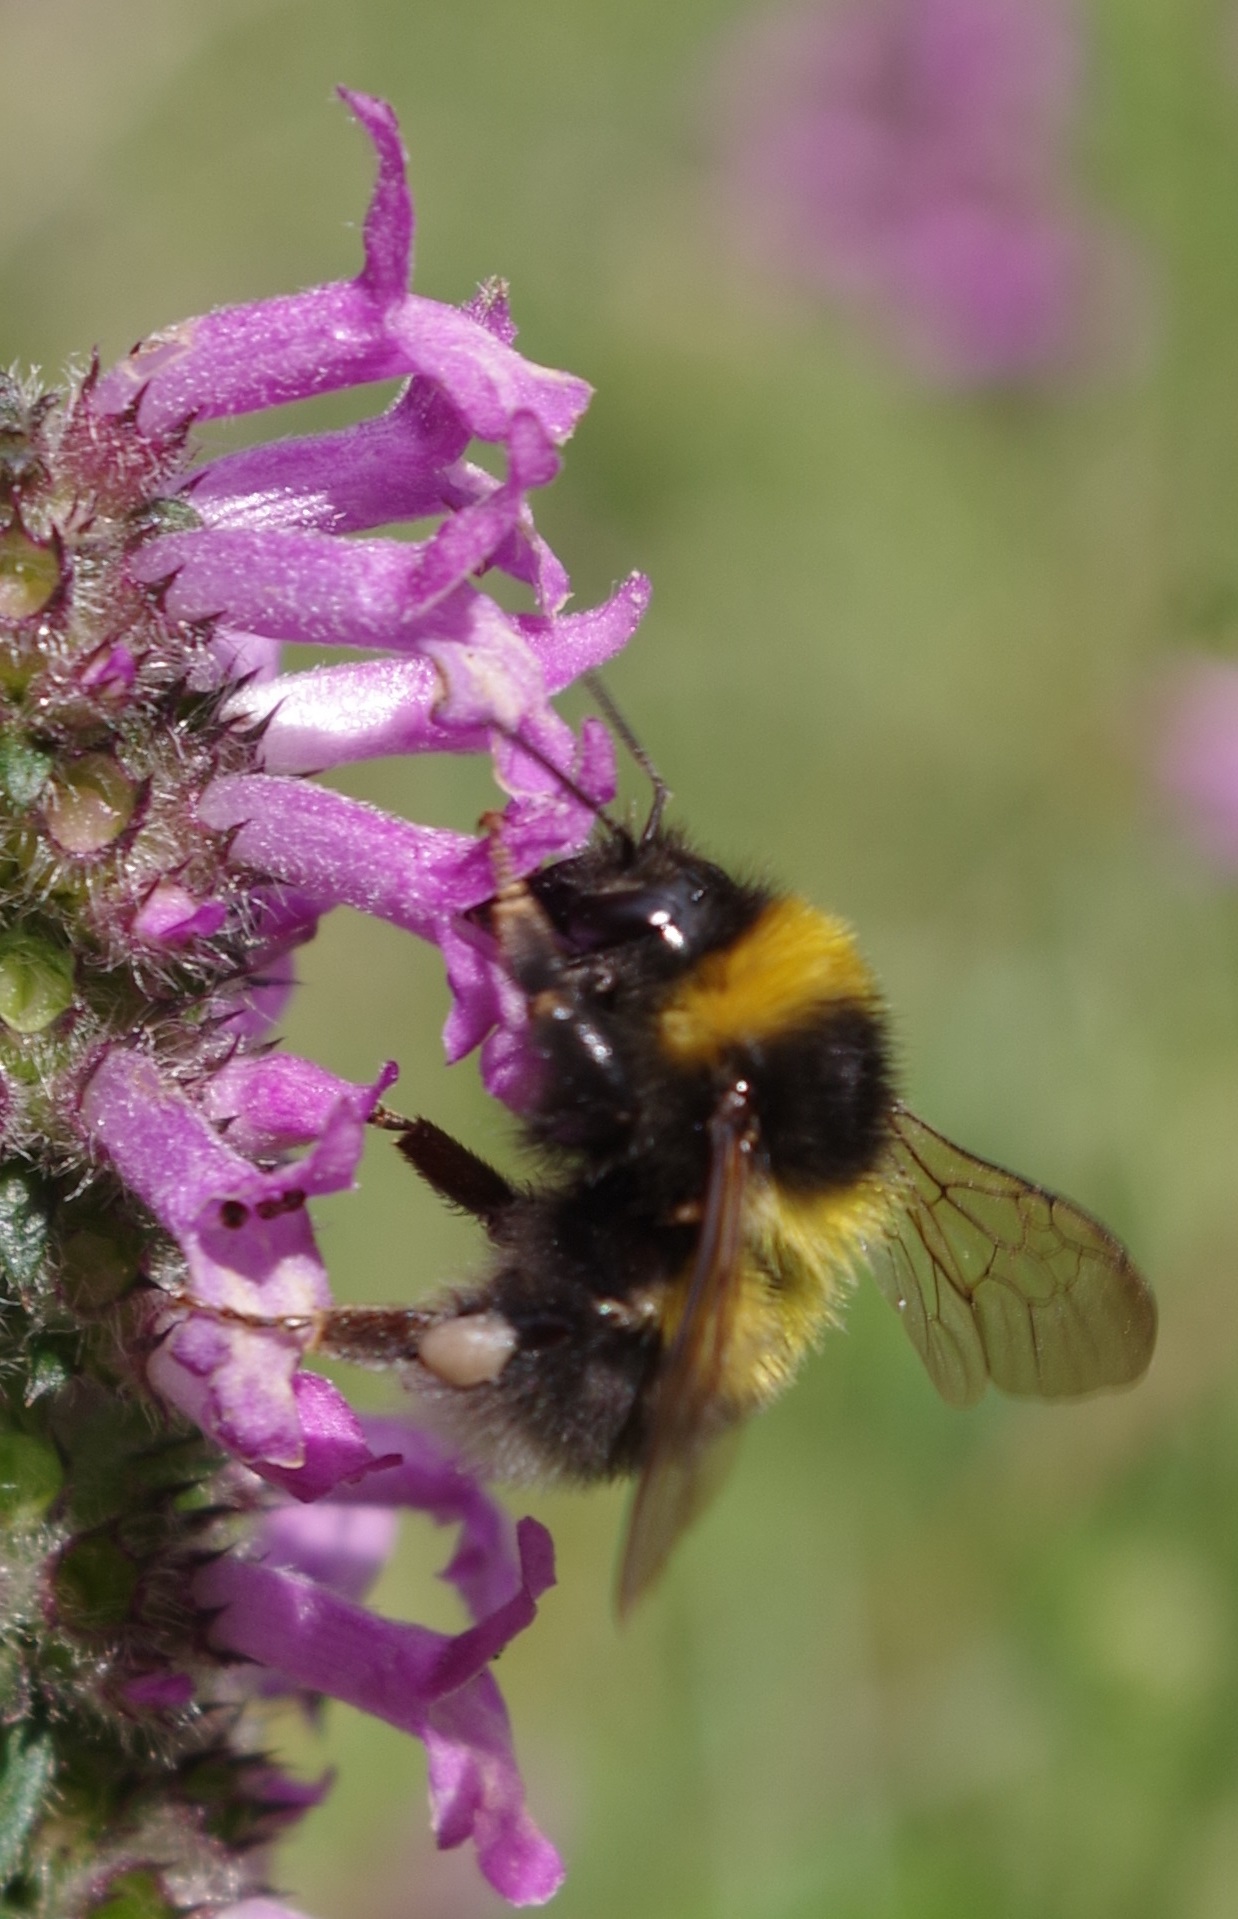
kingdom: Animalia
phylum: Arthropoda
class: Insecta
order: Hymenoptera
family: Apidae
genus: Bombus
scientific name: Bombus hortorum
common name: Garden bumblebee
